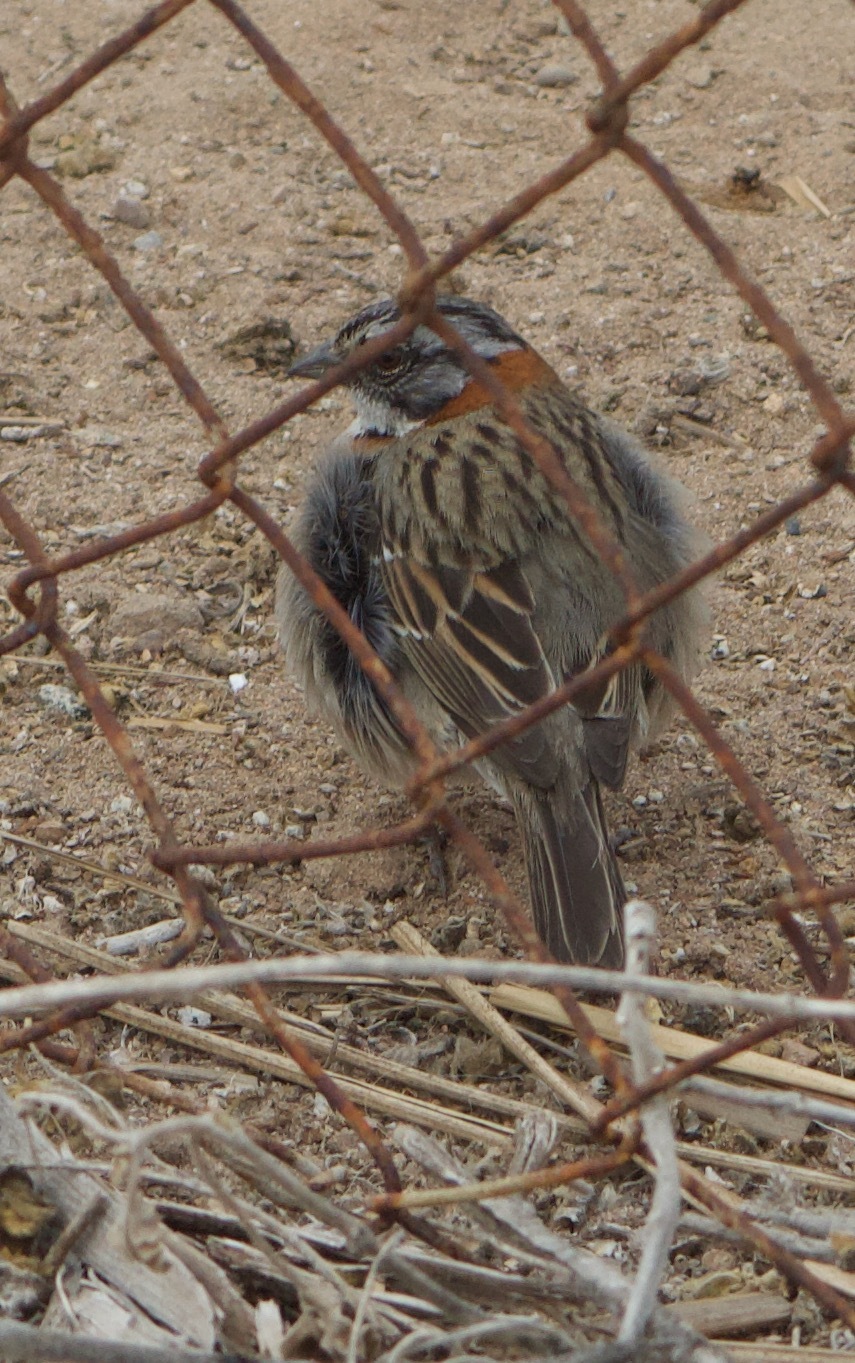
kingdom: Animalia
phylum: Chordata
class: Aves
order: Passeriformes
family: Passerellidae
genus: Zonotrichia
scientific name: Zonotrichia capensis
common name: Rufous-collared sparrow
